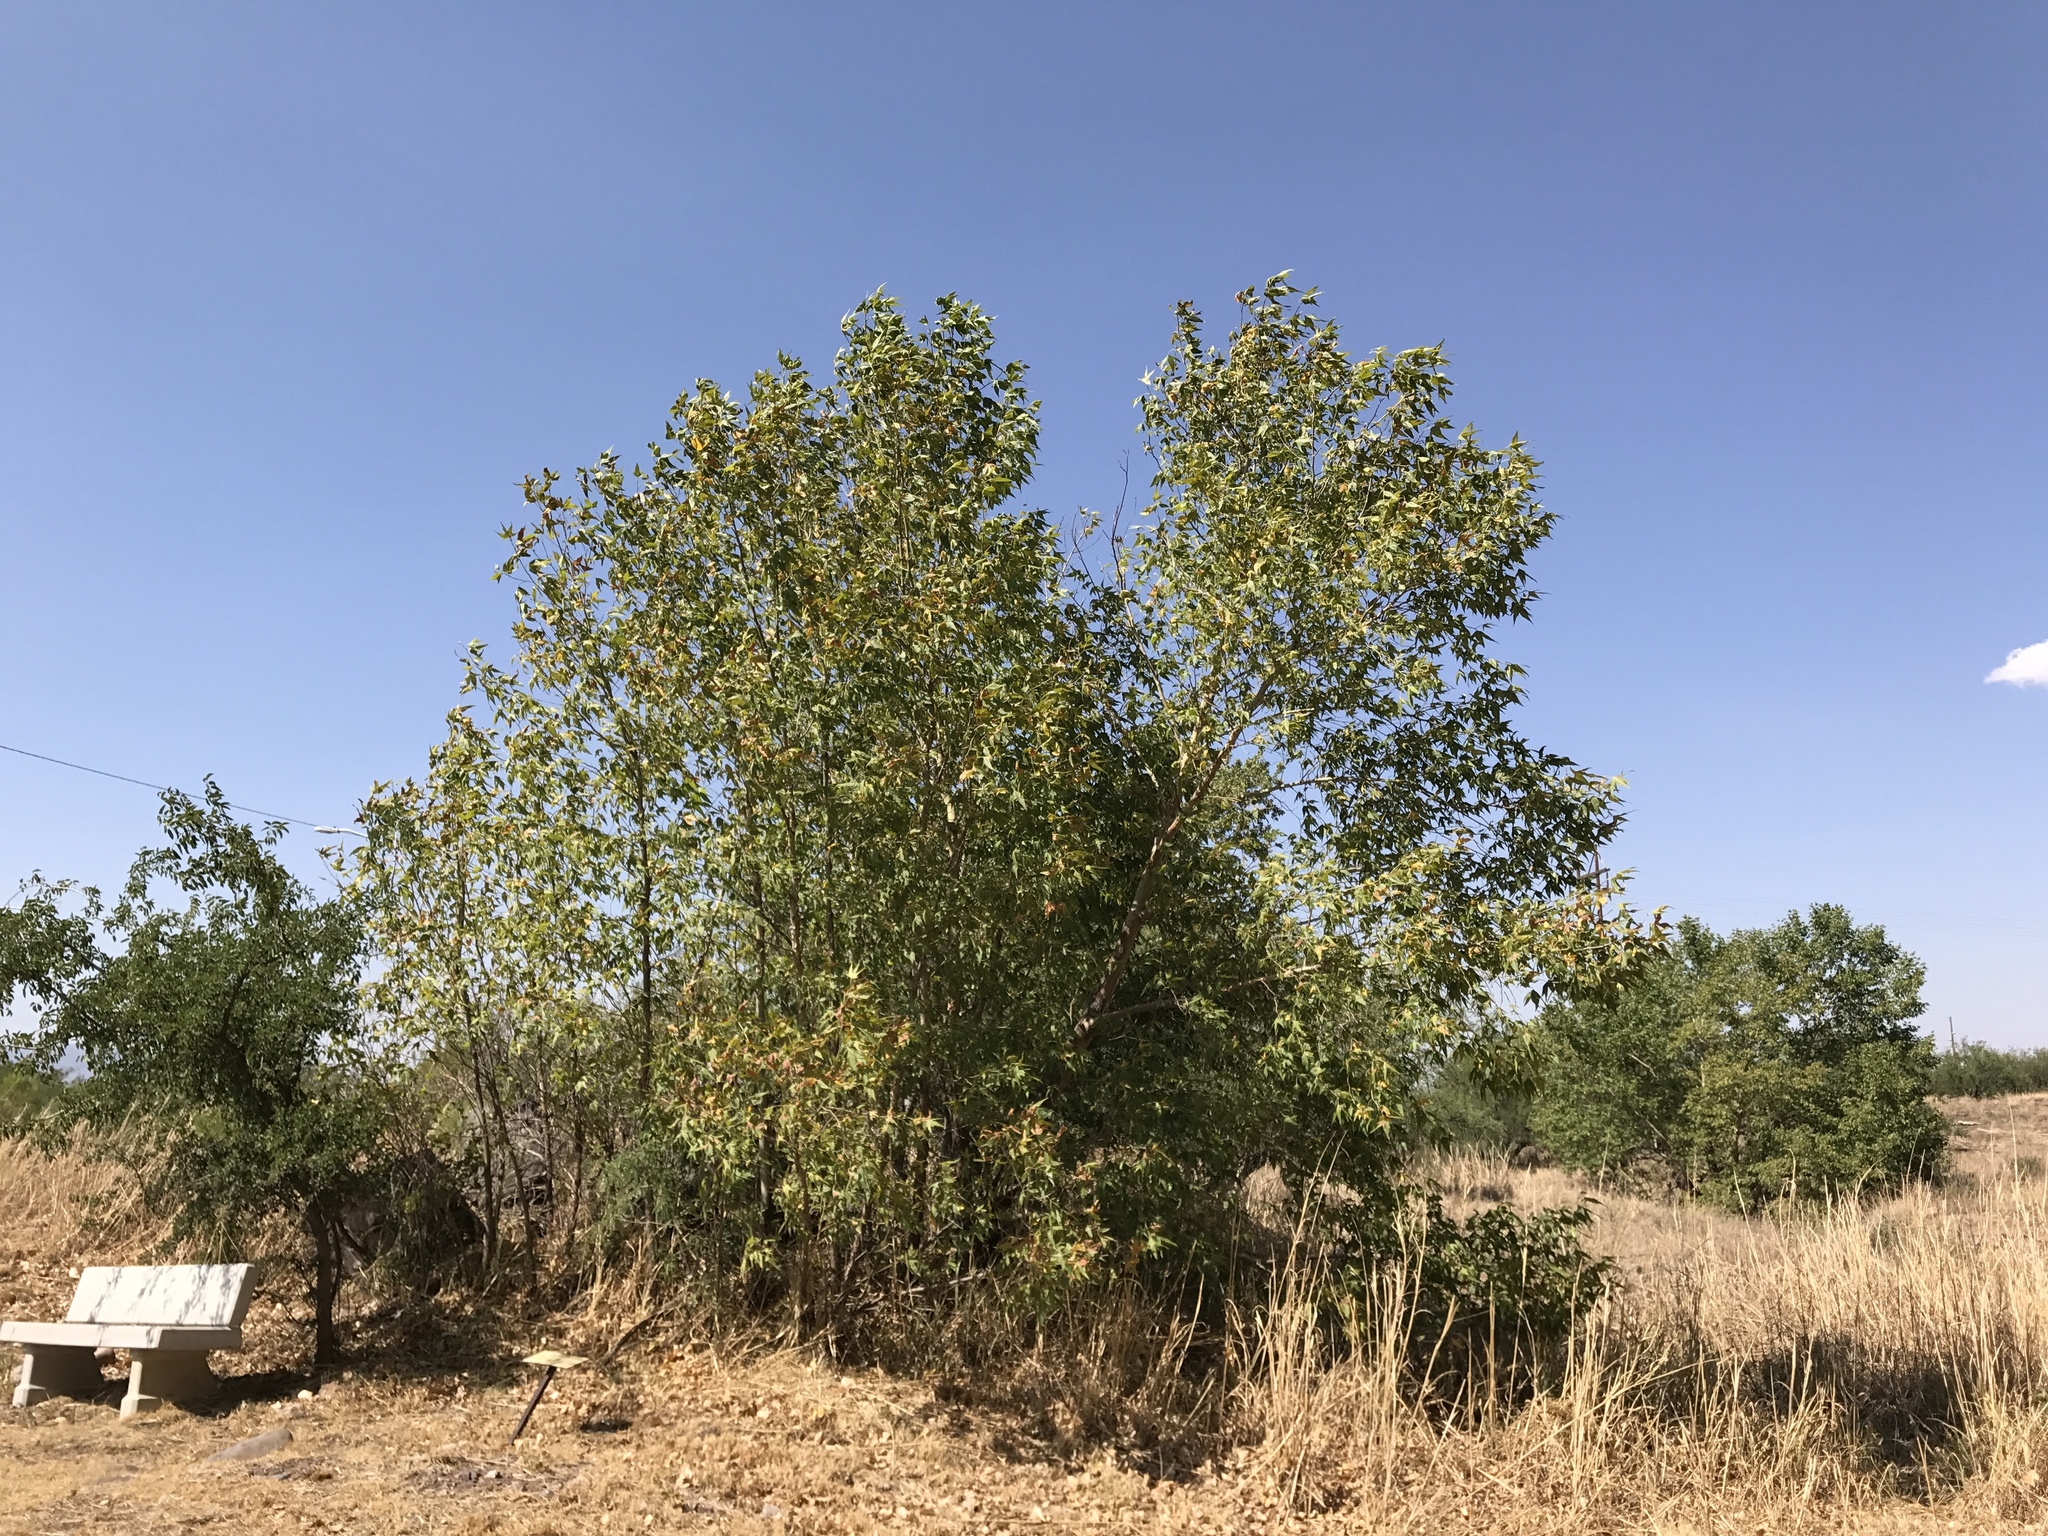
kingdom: Plantae
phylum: Tracheophyta
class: Magnoliopsida
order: Proteales
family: Platanaceae
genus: Platanus
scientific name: Platanus wrightii
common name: Arizona sycamore
